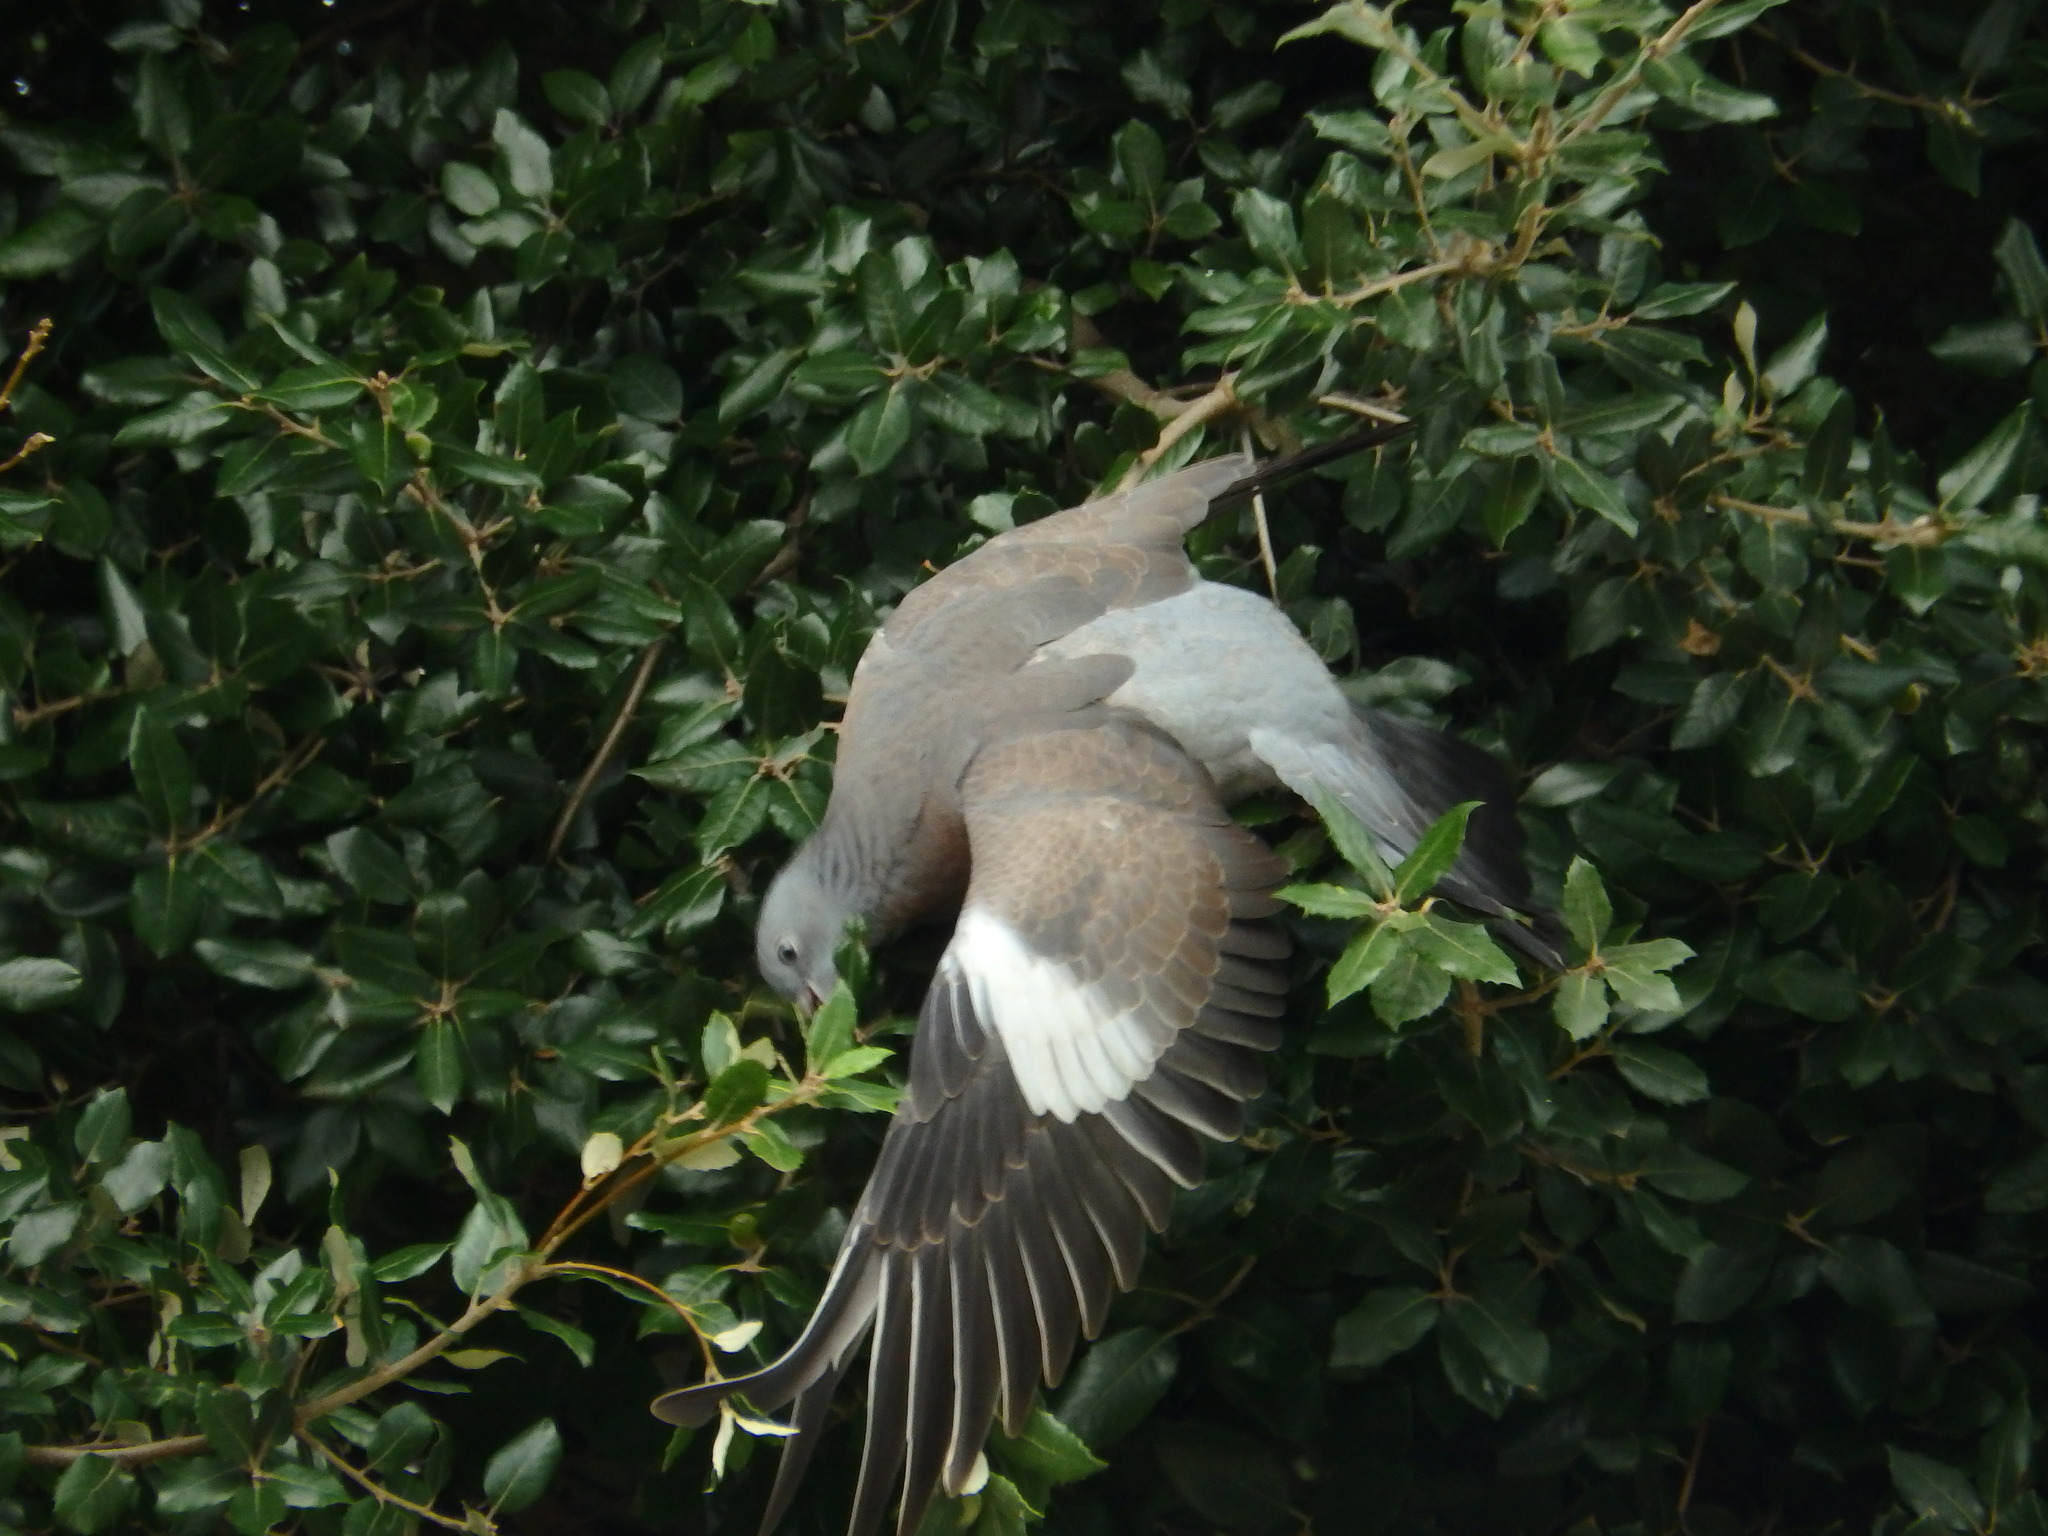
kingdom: Animalia
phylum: Chordata
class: Aves
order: Columbiformes
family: Columbidae
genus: Columba
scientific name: Columba palumbus
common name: Common wood pigeon
